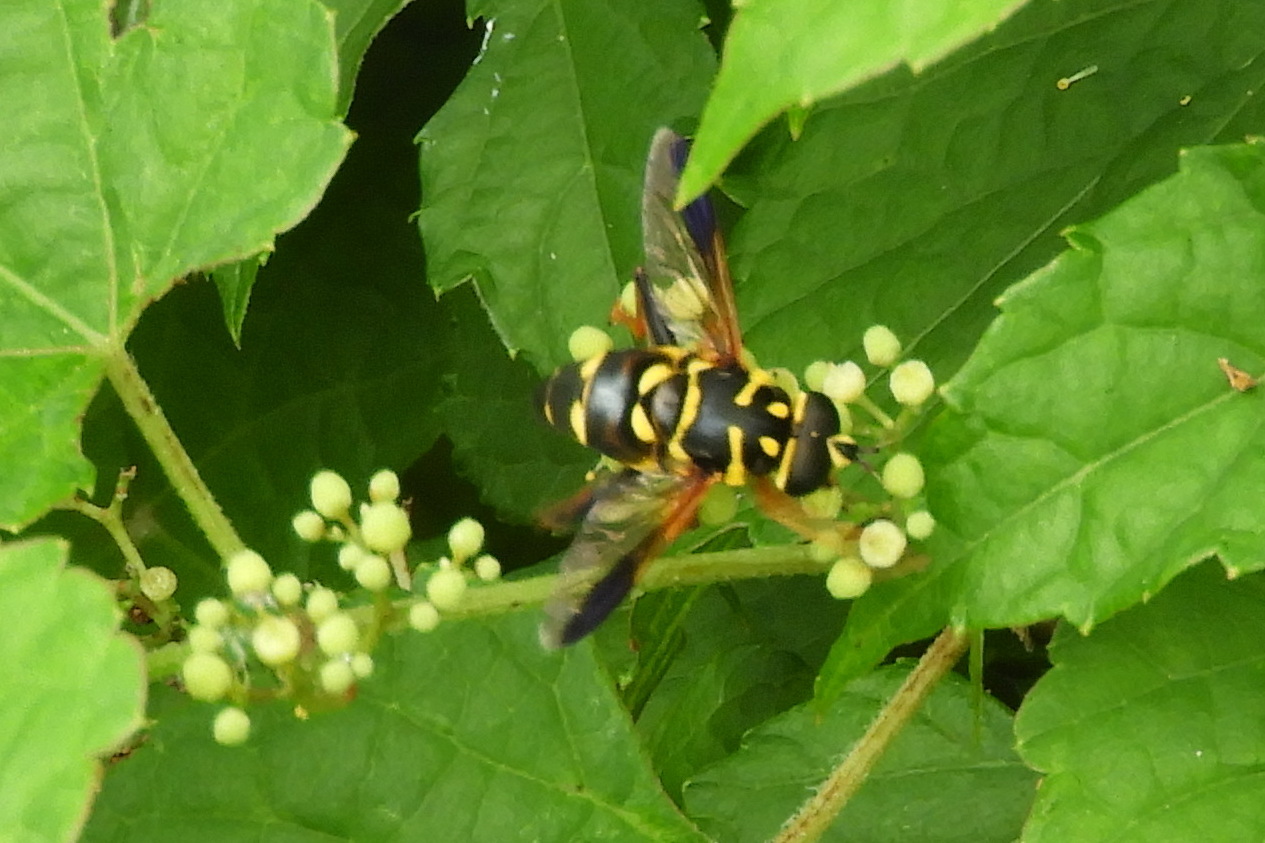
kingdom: Animalia
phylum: Arthropoda
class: Insecta
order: Diptera
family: Syrphidae
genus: Meromacrus
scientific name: Meromacrus acutus
